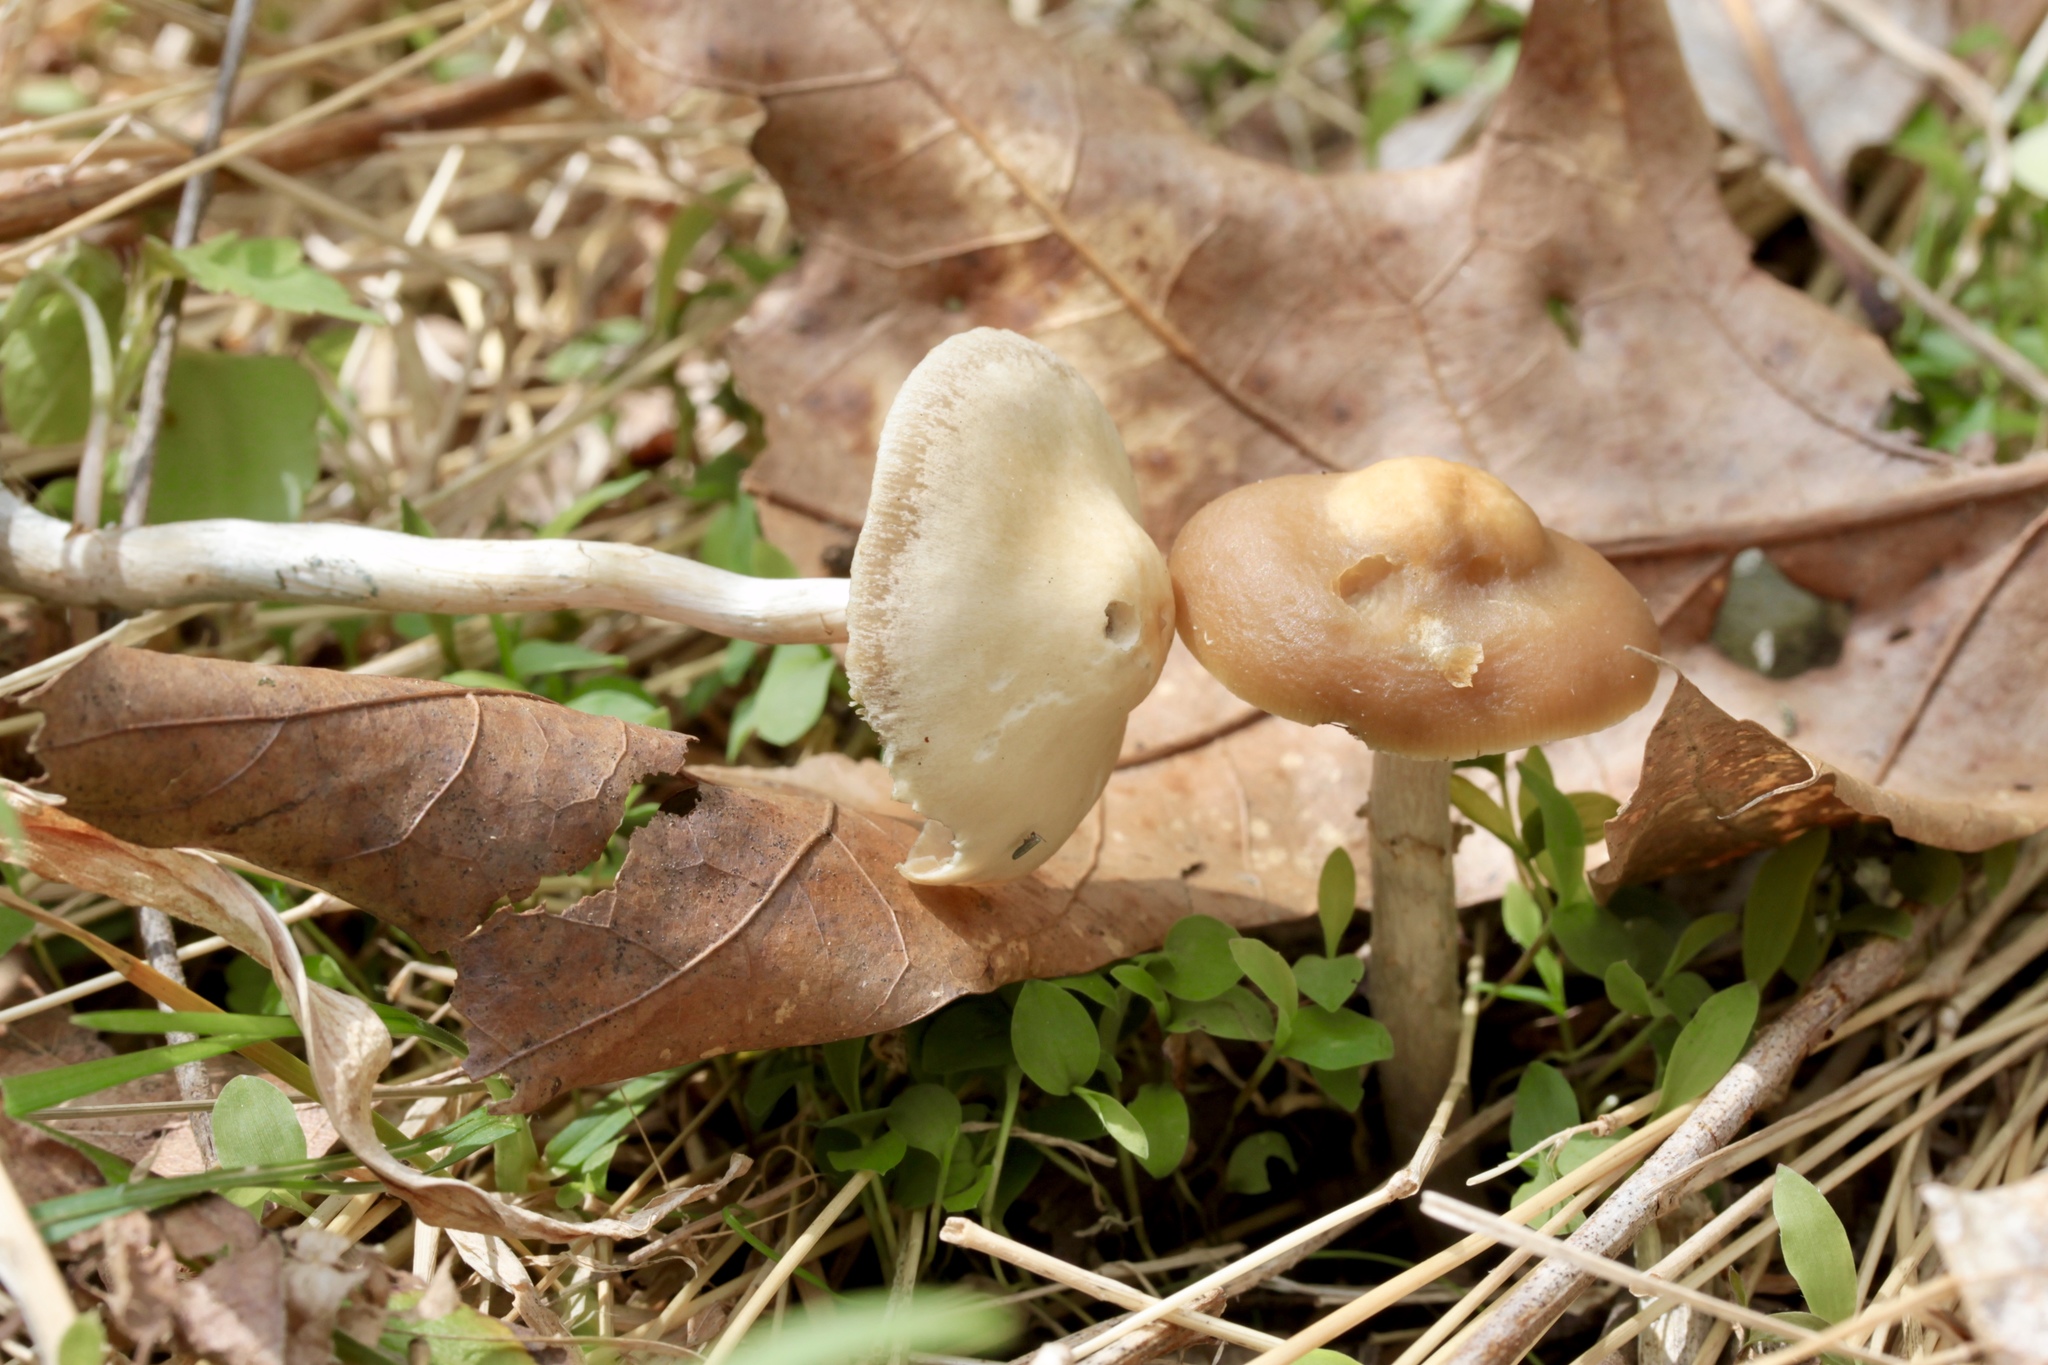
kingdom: Fungi
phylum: Basidiomycota
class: Agaricomycetes
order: Agaricales
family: Hymenogastraceae
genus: Psilocybe
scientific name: Psilocybe ovoideocystidiata
